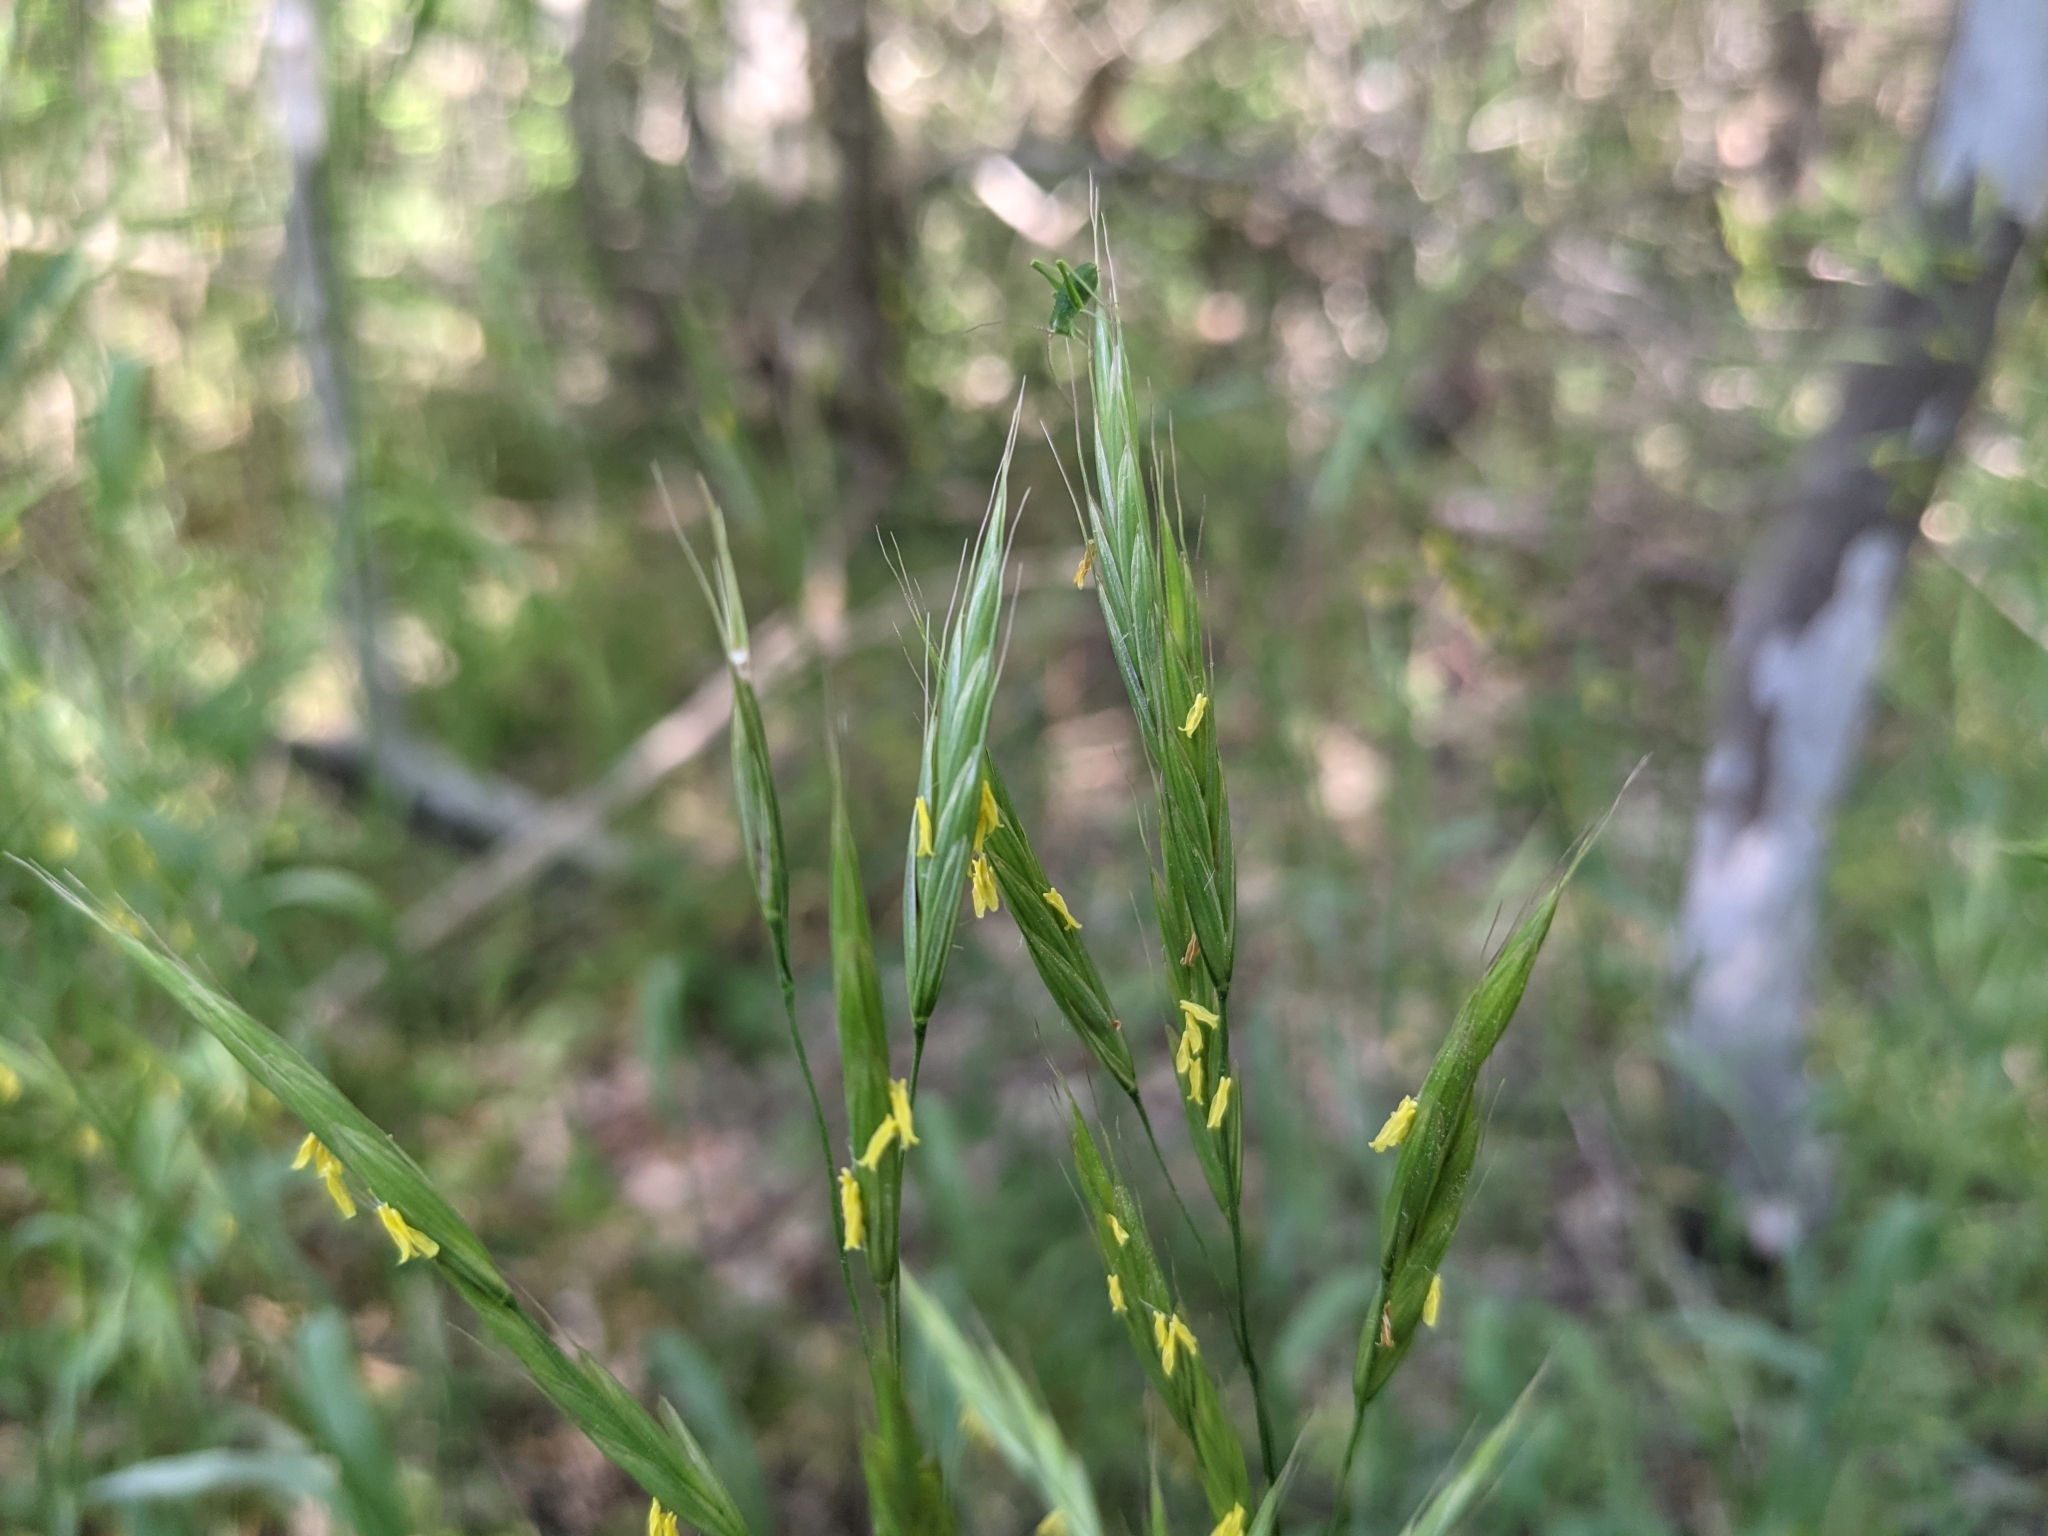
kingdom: Plantae
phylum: Tracheophyta
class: Liliopsida
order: Poales
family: Poaceae
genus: Bromus
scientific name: Bromus texensis
